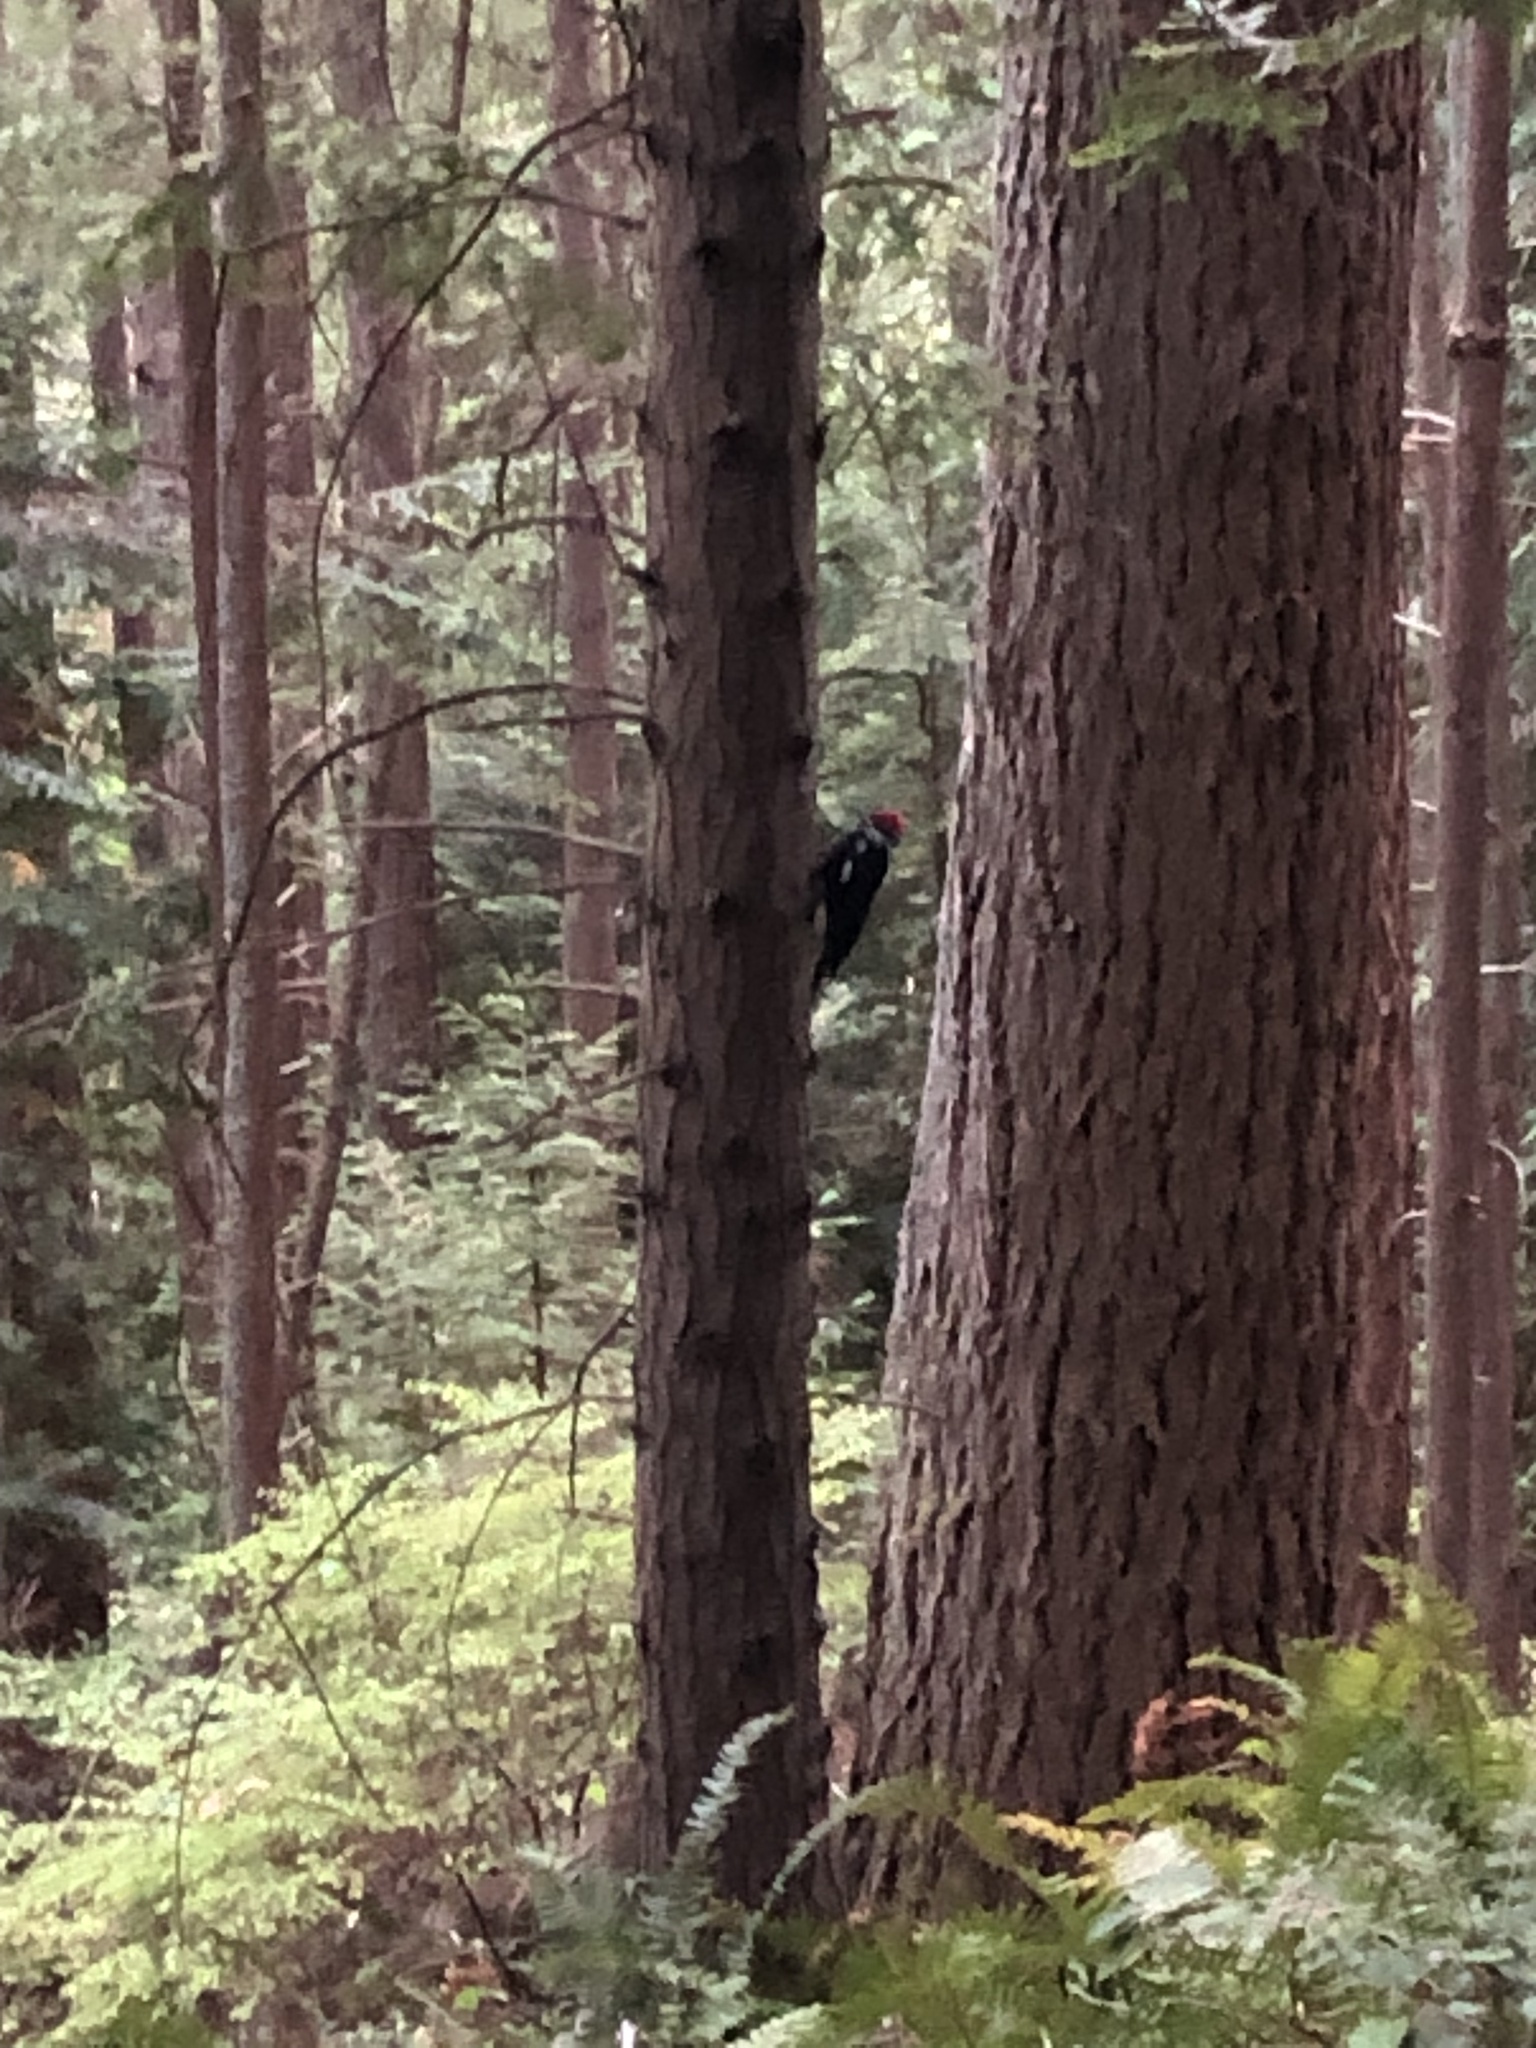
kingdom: Animalia
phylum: Chordata
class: Aves
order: Piciformes
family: Picidae
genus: Dryocopus
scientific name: Dryocopus pileatus
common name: Pileated woodpecker
